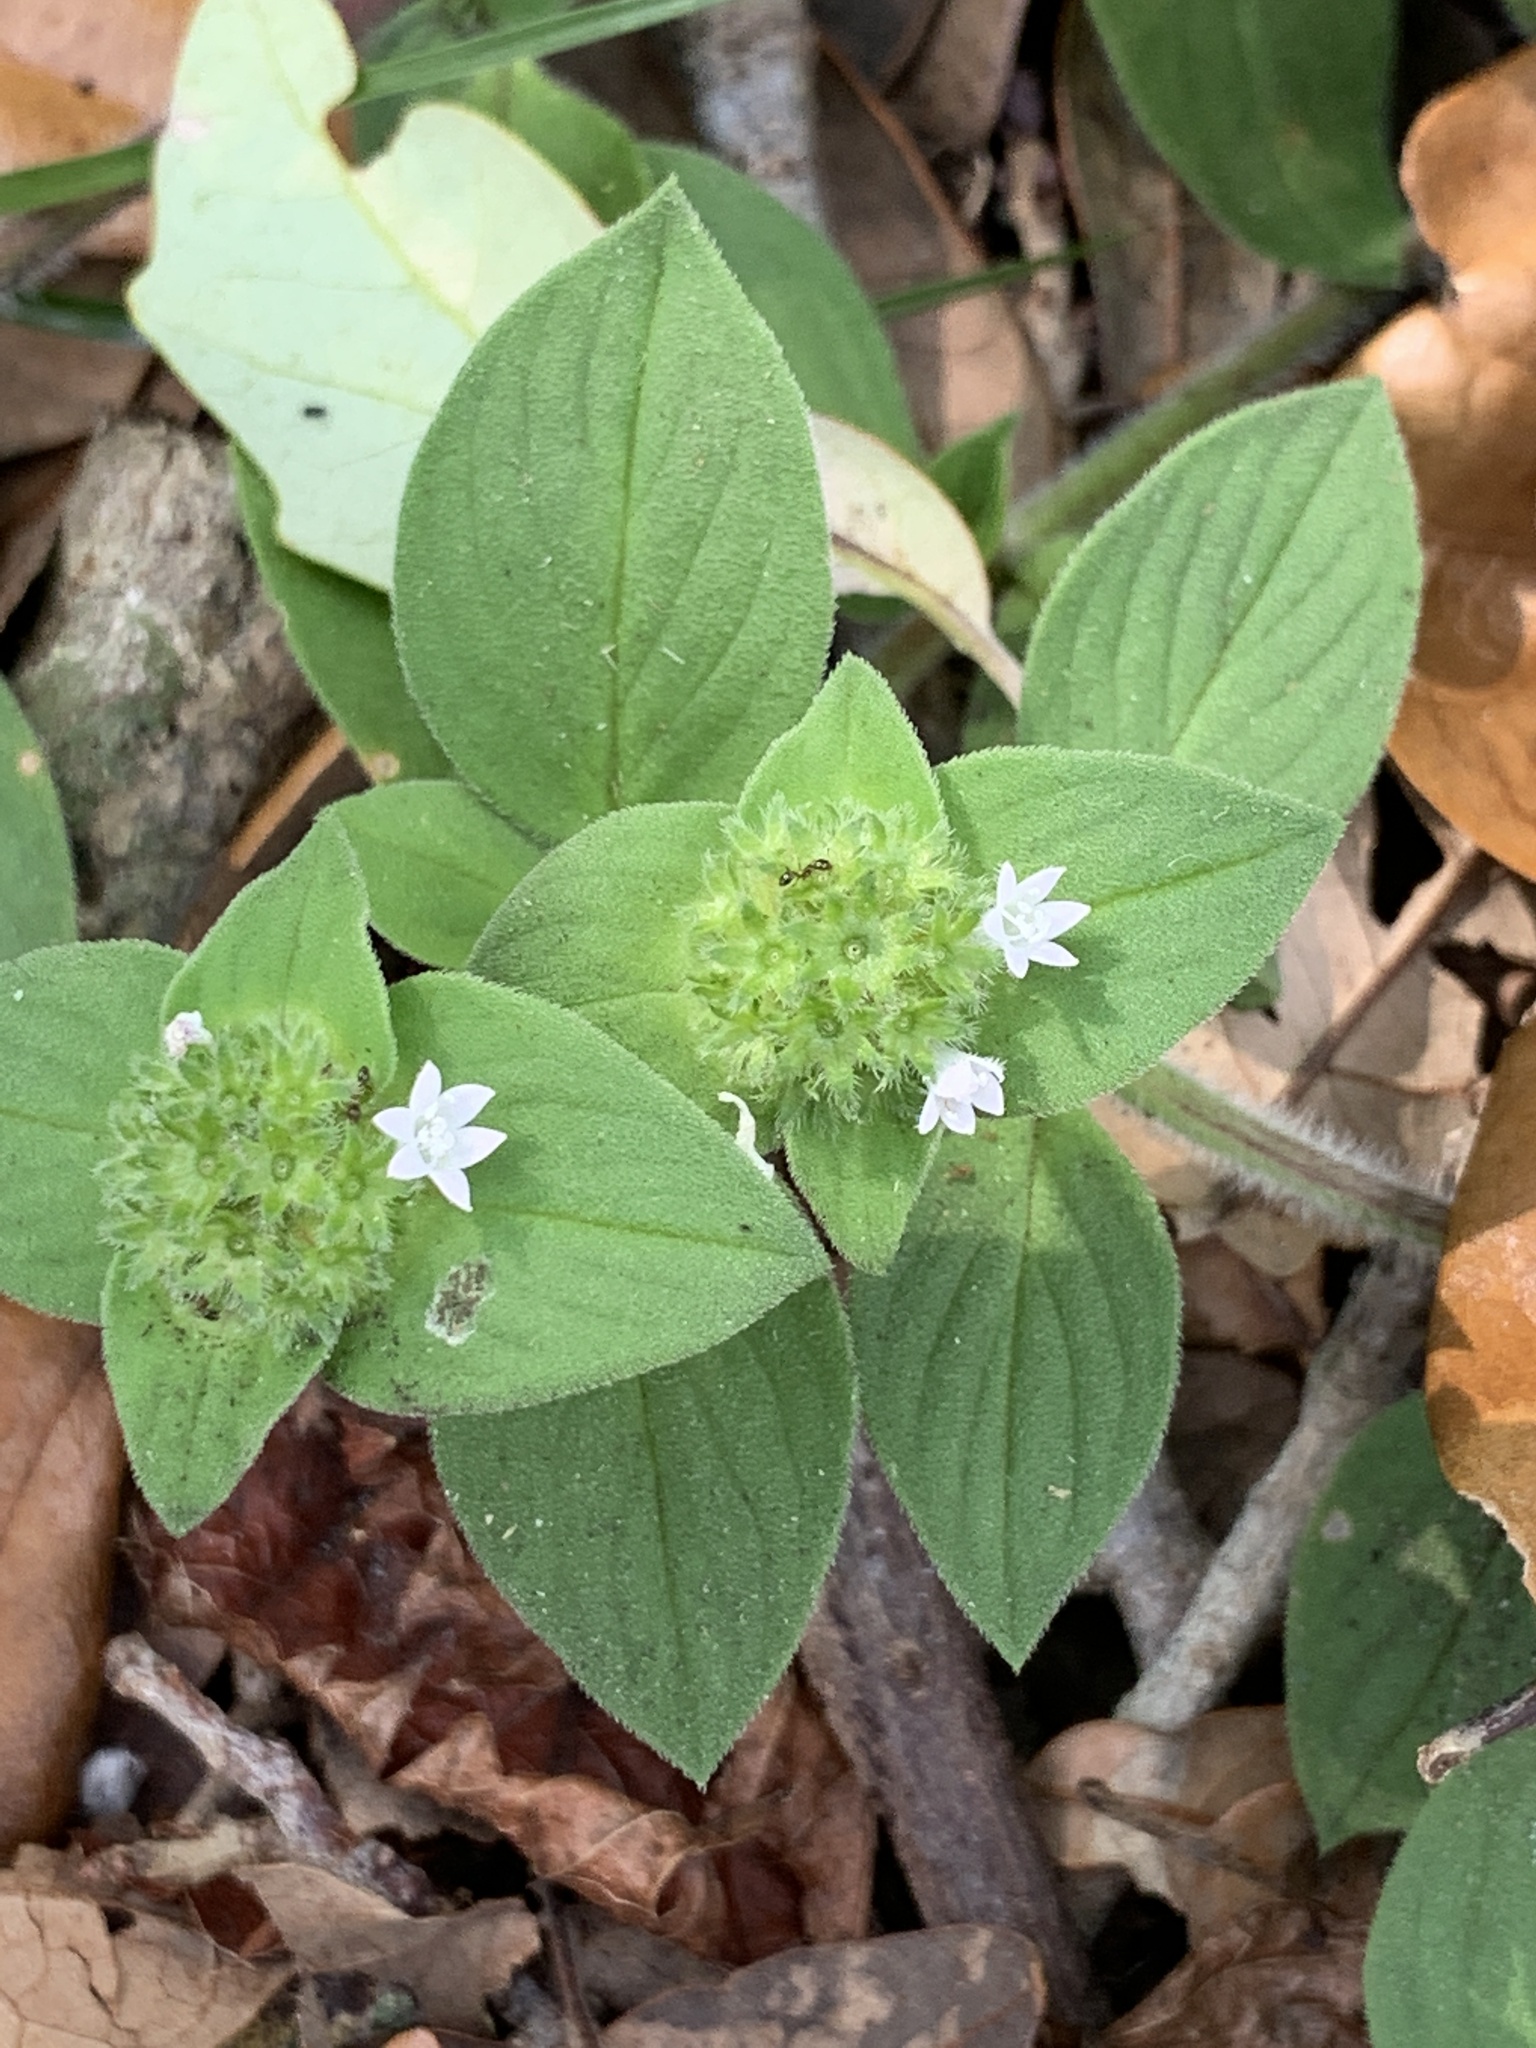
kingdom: Plantae
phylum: Tracheophyta
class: Magnoliopsida
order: Gentianales
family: Rubiaceae
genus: Richardia
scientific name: Richardia scabra
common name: Rough mexican clover
